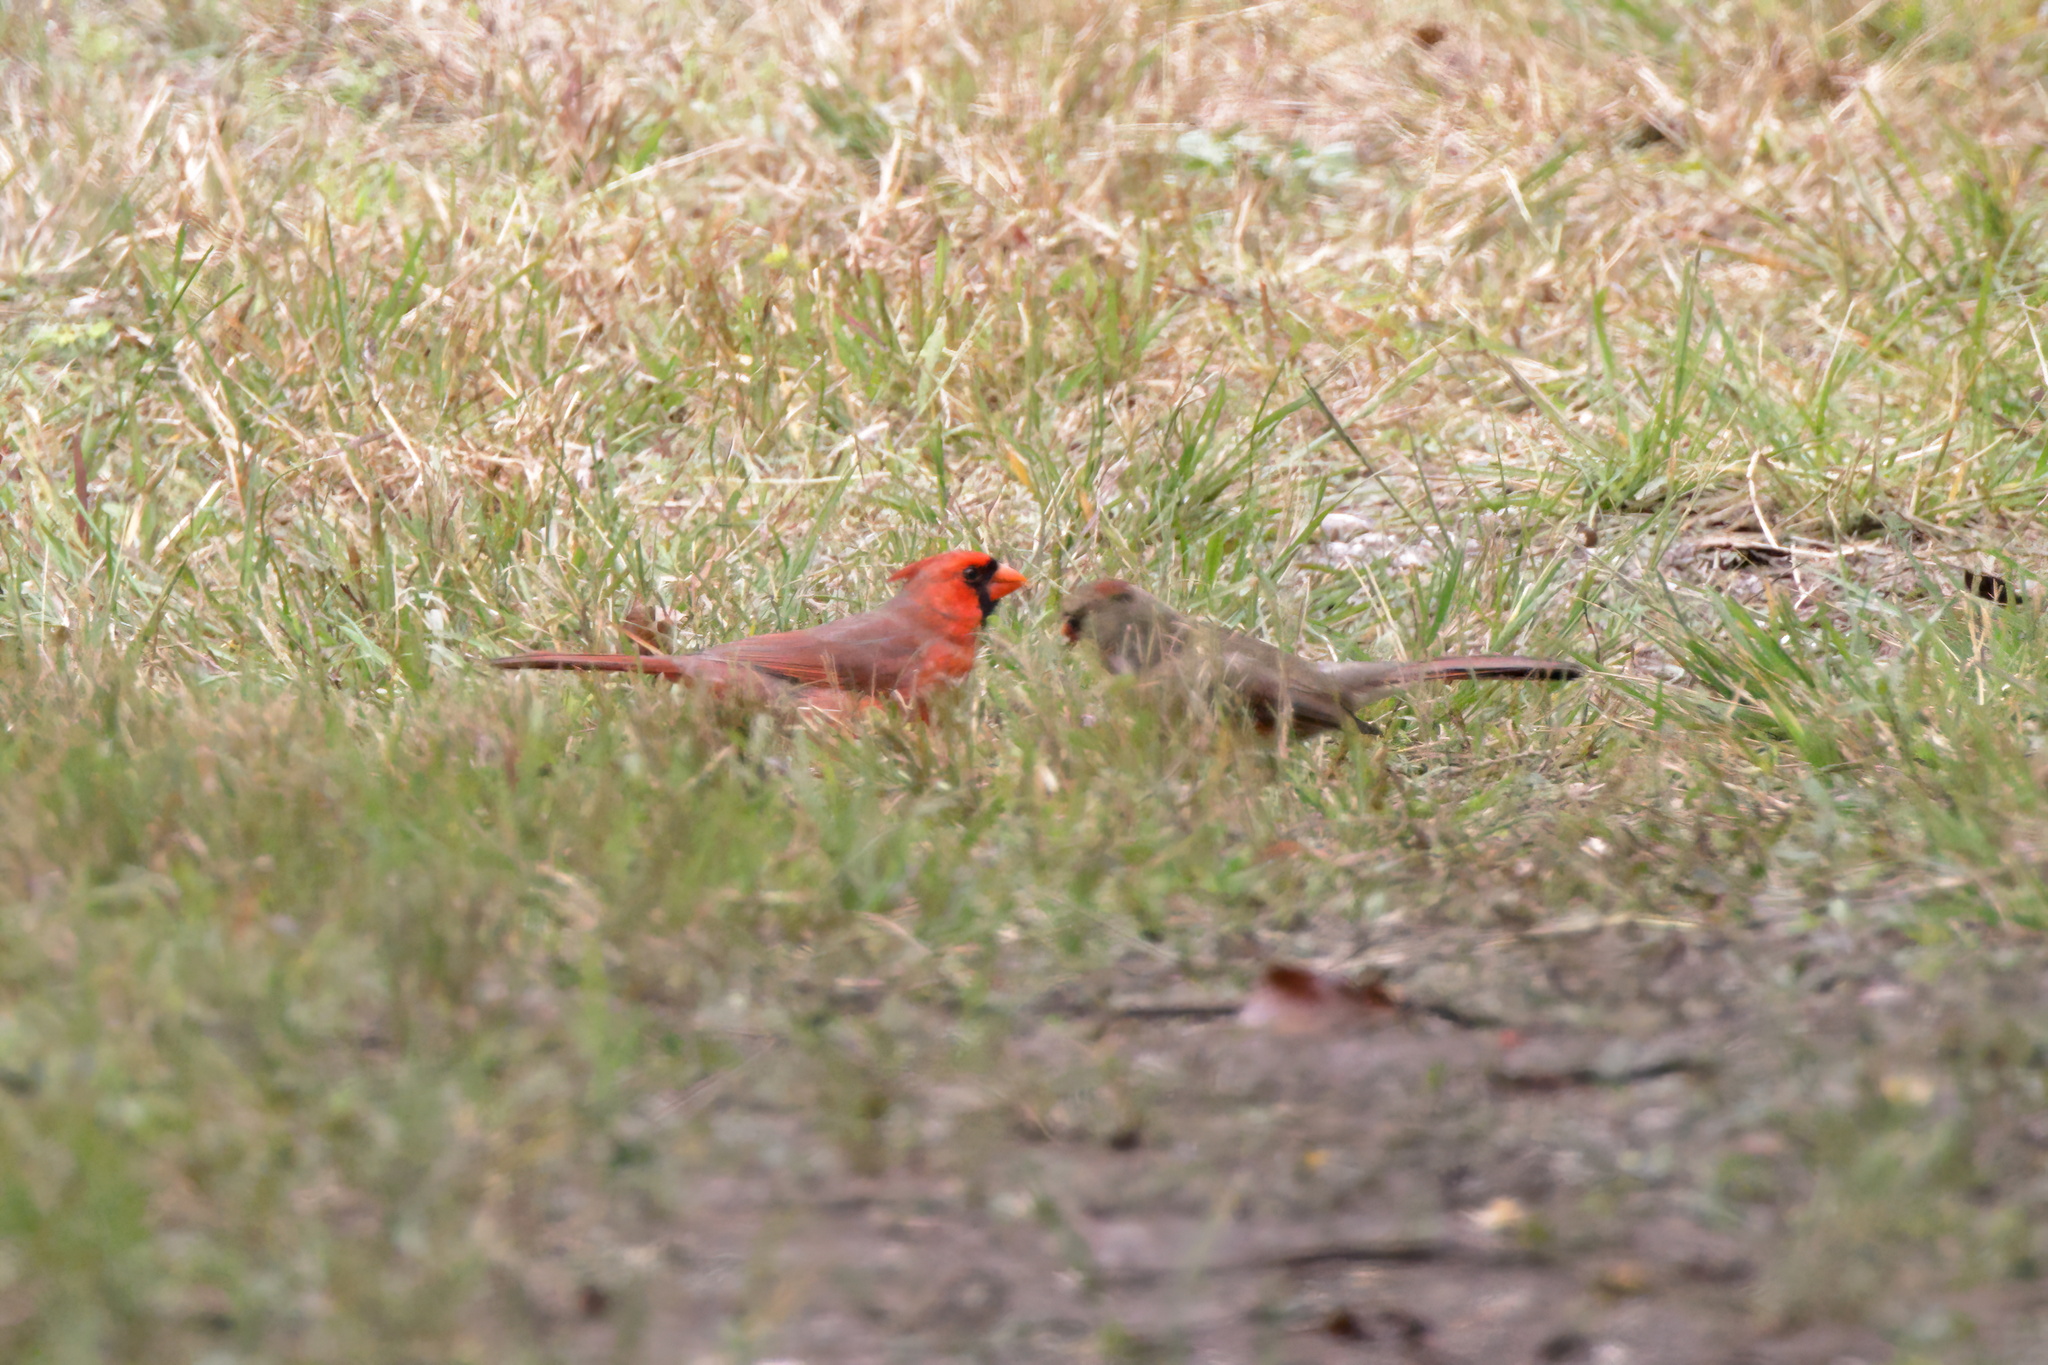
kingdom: Animalia
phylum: Chordata
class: Aves
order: Passeriformes
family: Cardinalidae
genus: Cardinalis
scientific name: Cardinalis cardinalis
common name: Northern cardinal
